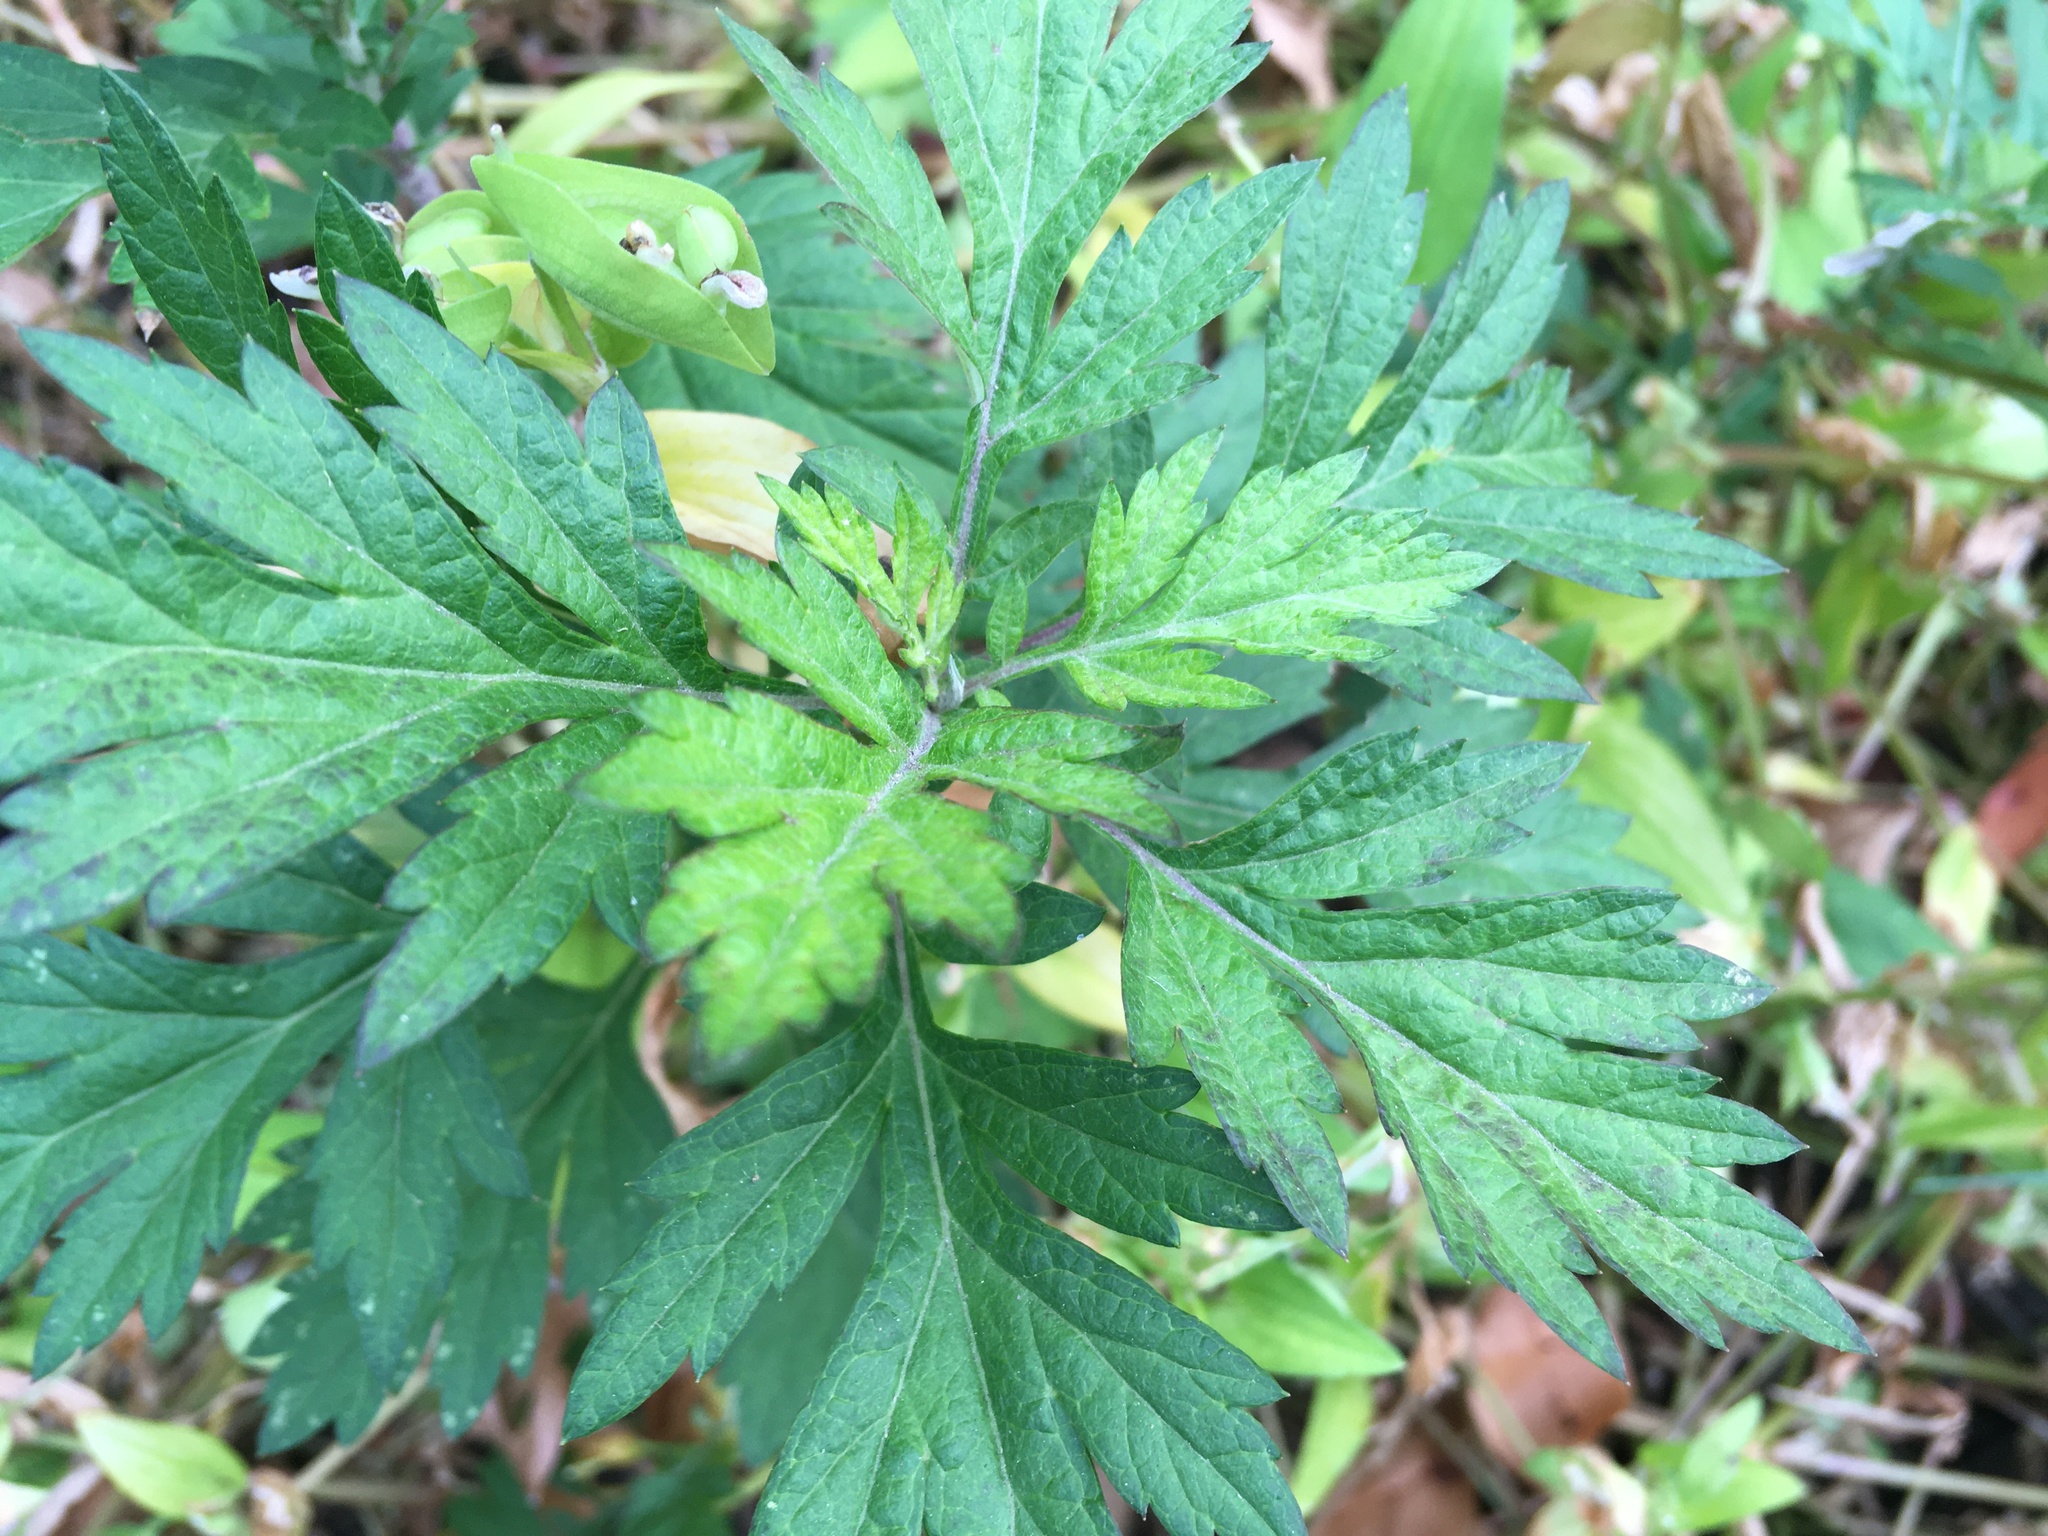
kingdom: Plantae
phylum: Tracheophyta
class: Magnoliopsida
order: Asterales
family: Asteraceae
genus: Artemisia
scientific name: Artemisia vulgaris
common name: Mugwort
